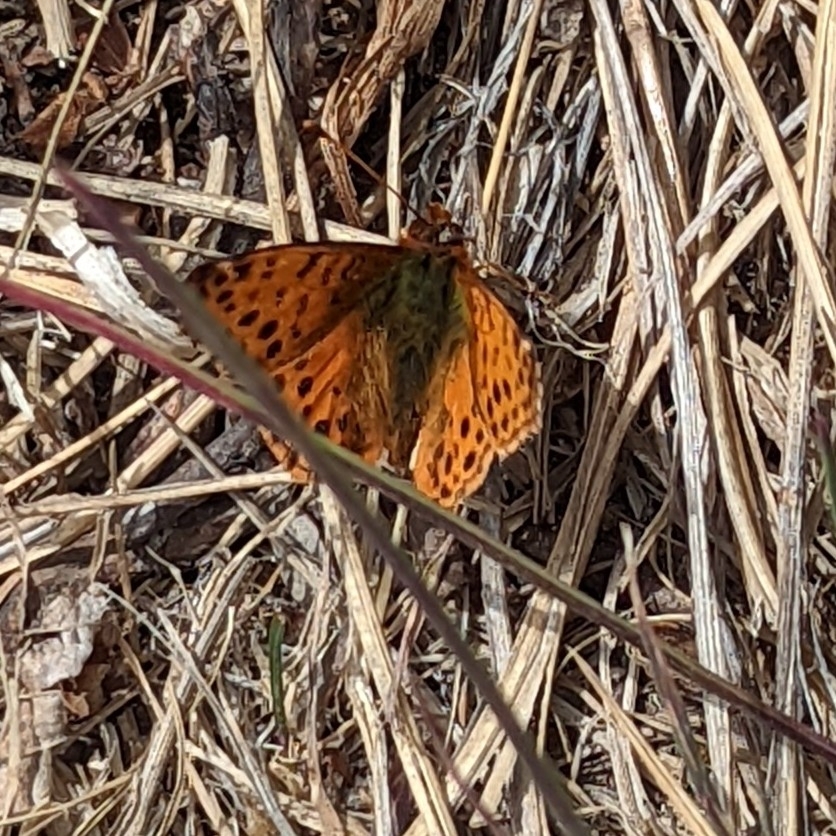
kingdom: Animalia
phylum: Arthropoda
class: Insecta
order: Lepidoptera
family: Nymphalidae
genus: Issoria
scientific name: Issoria Yramea cytheris
